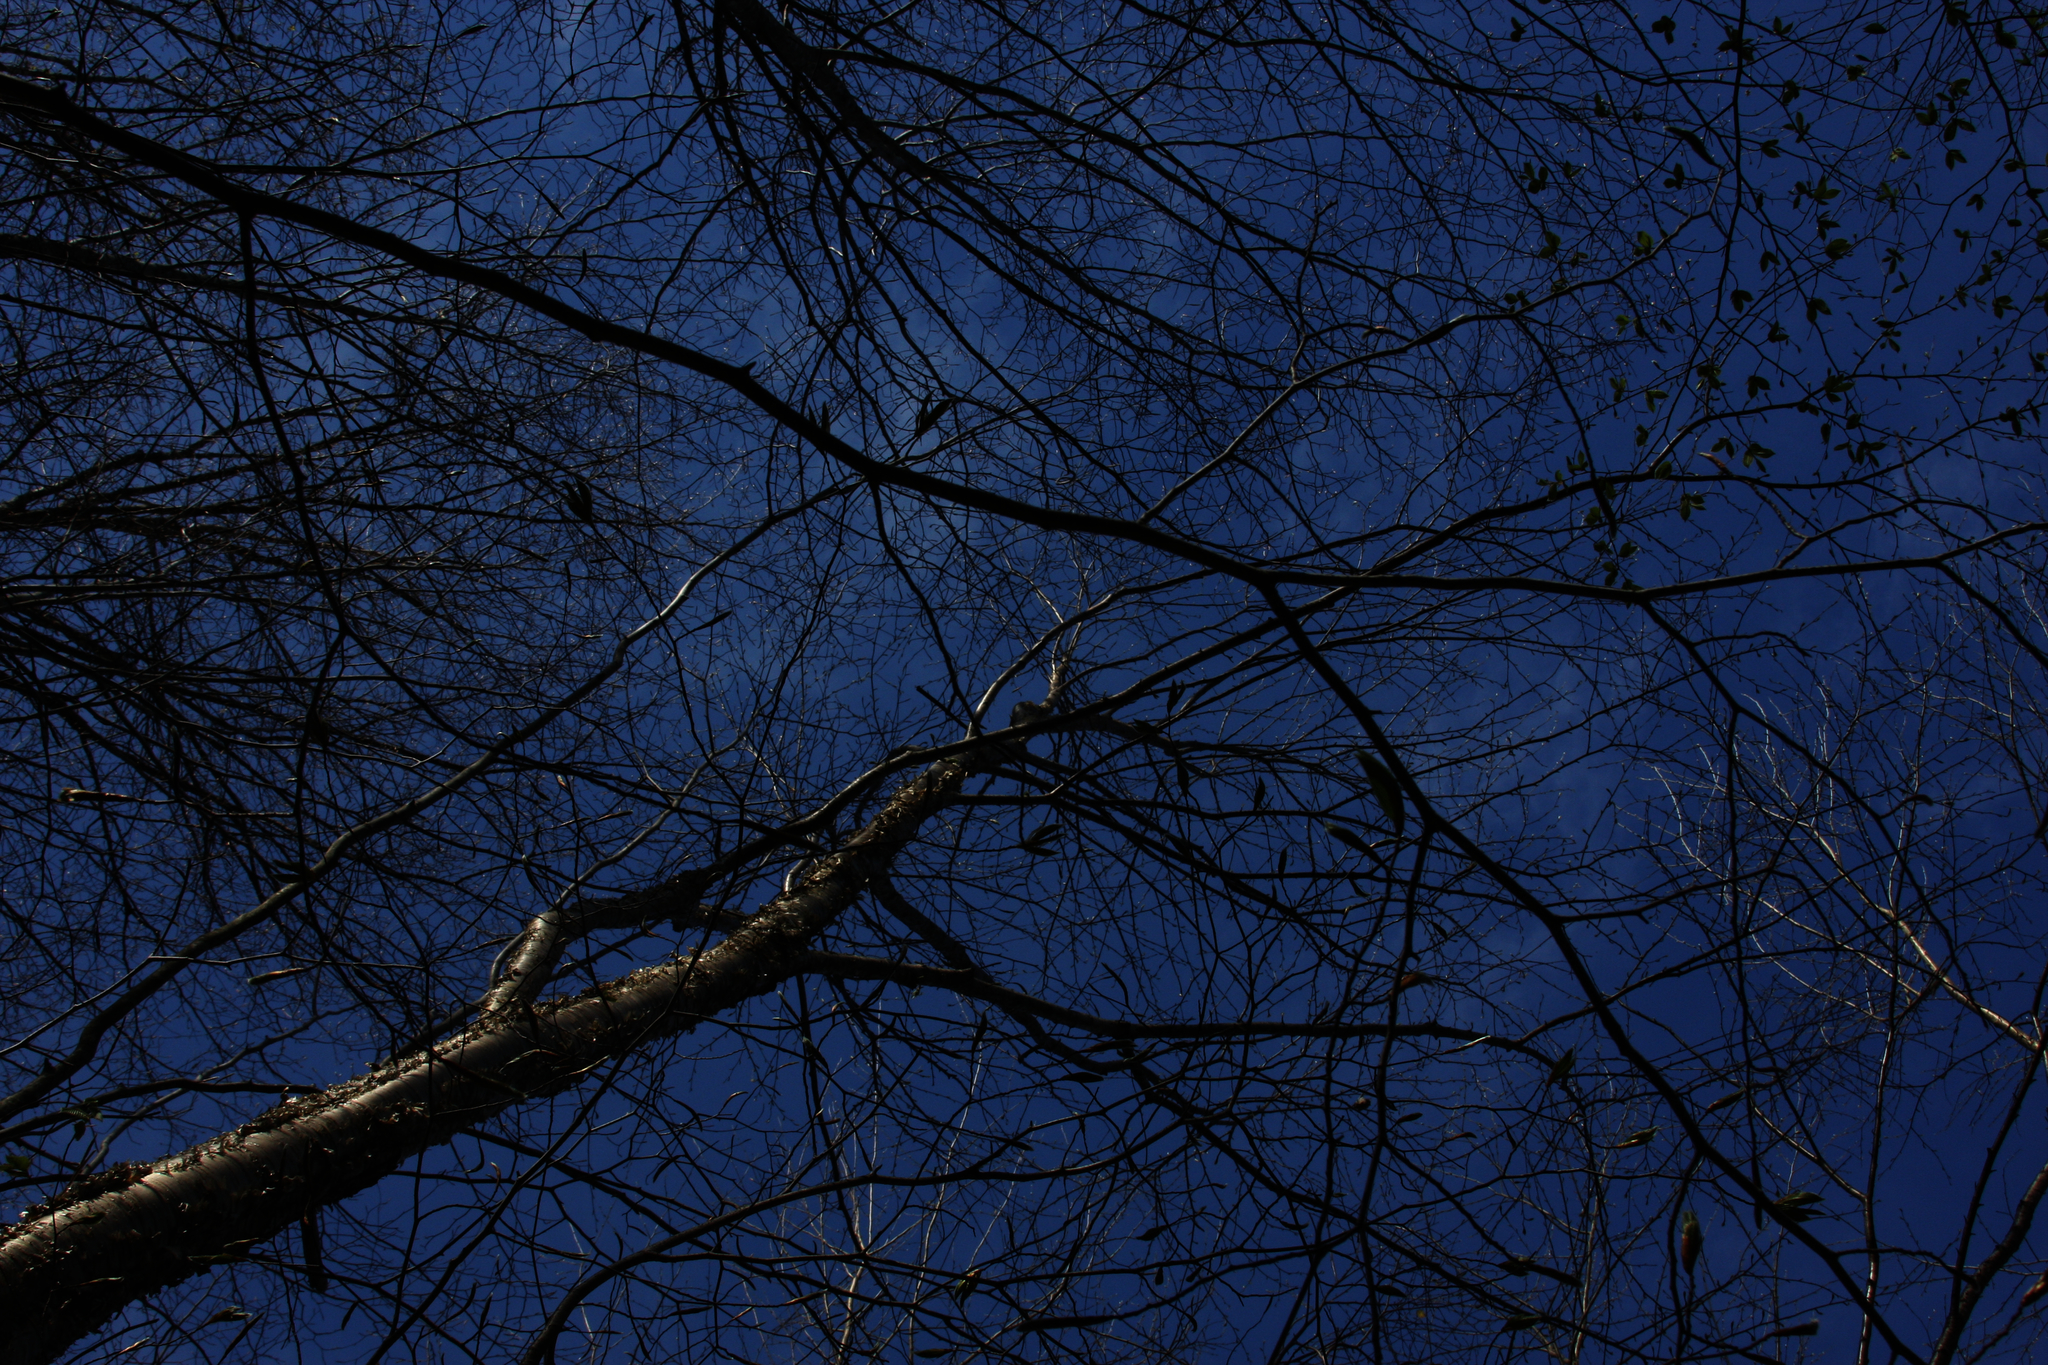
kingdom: Plantae
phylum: Tracheophyta
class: Magnoliopsida
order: Fagales
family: Betulaceae
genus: Betula
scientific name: Betula alleghaniensis
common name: Yellow birch
